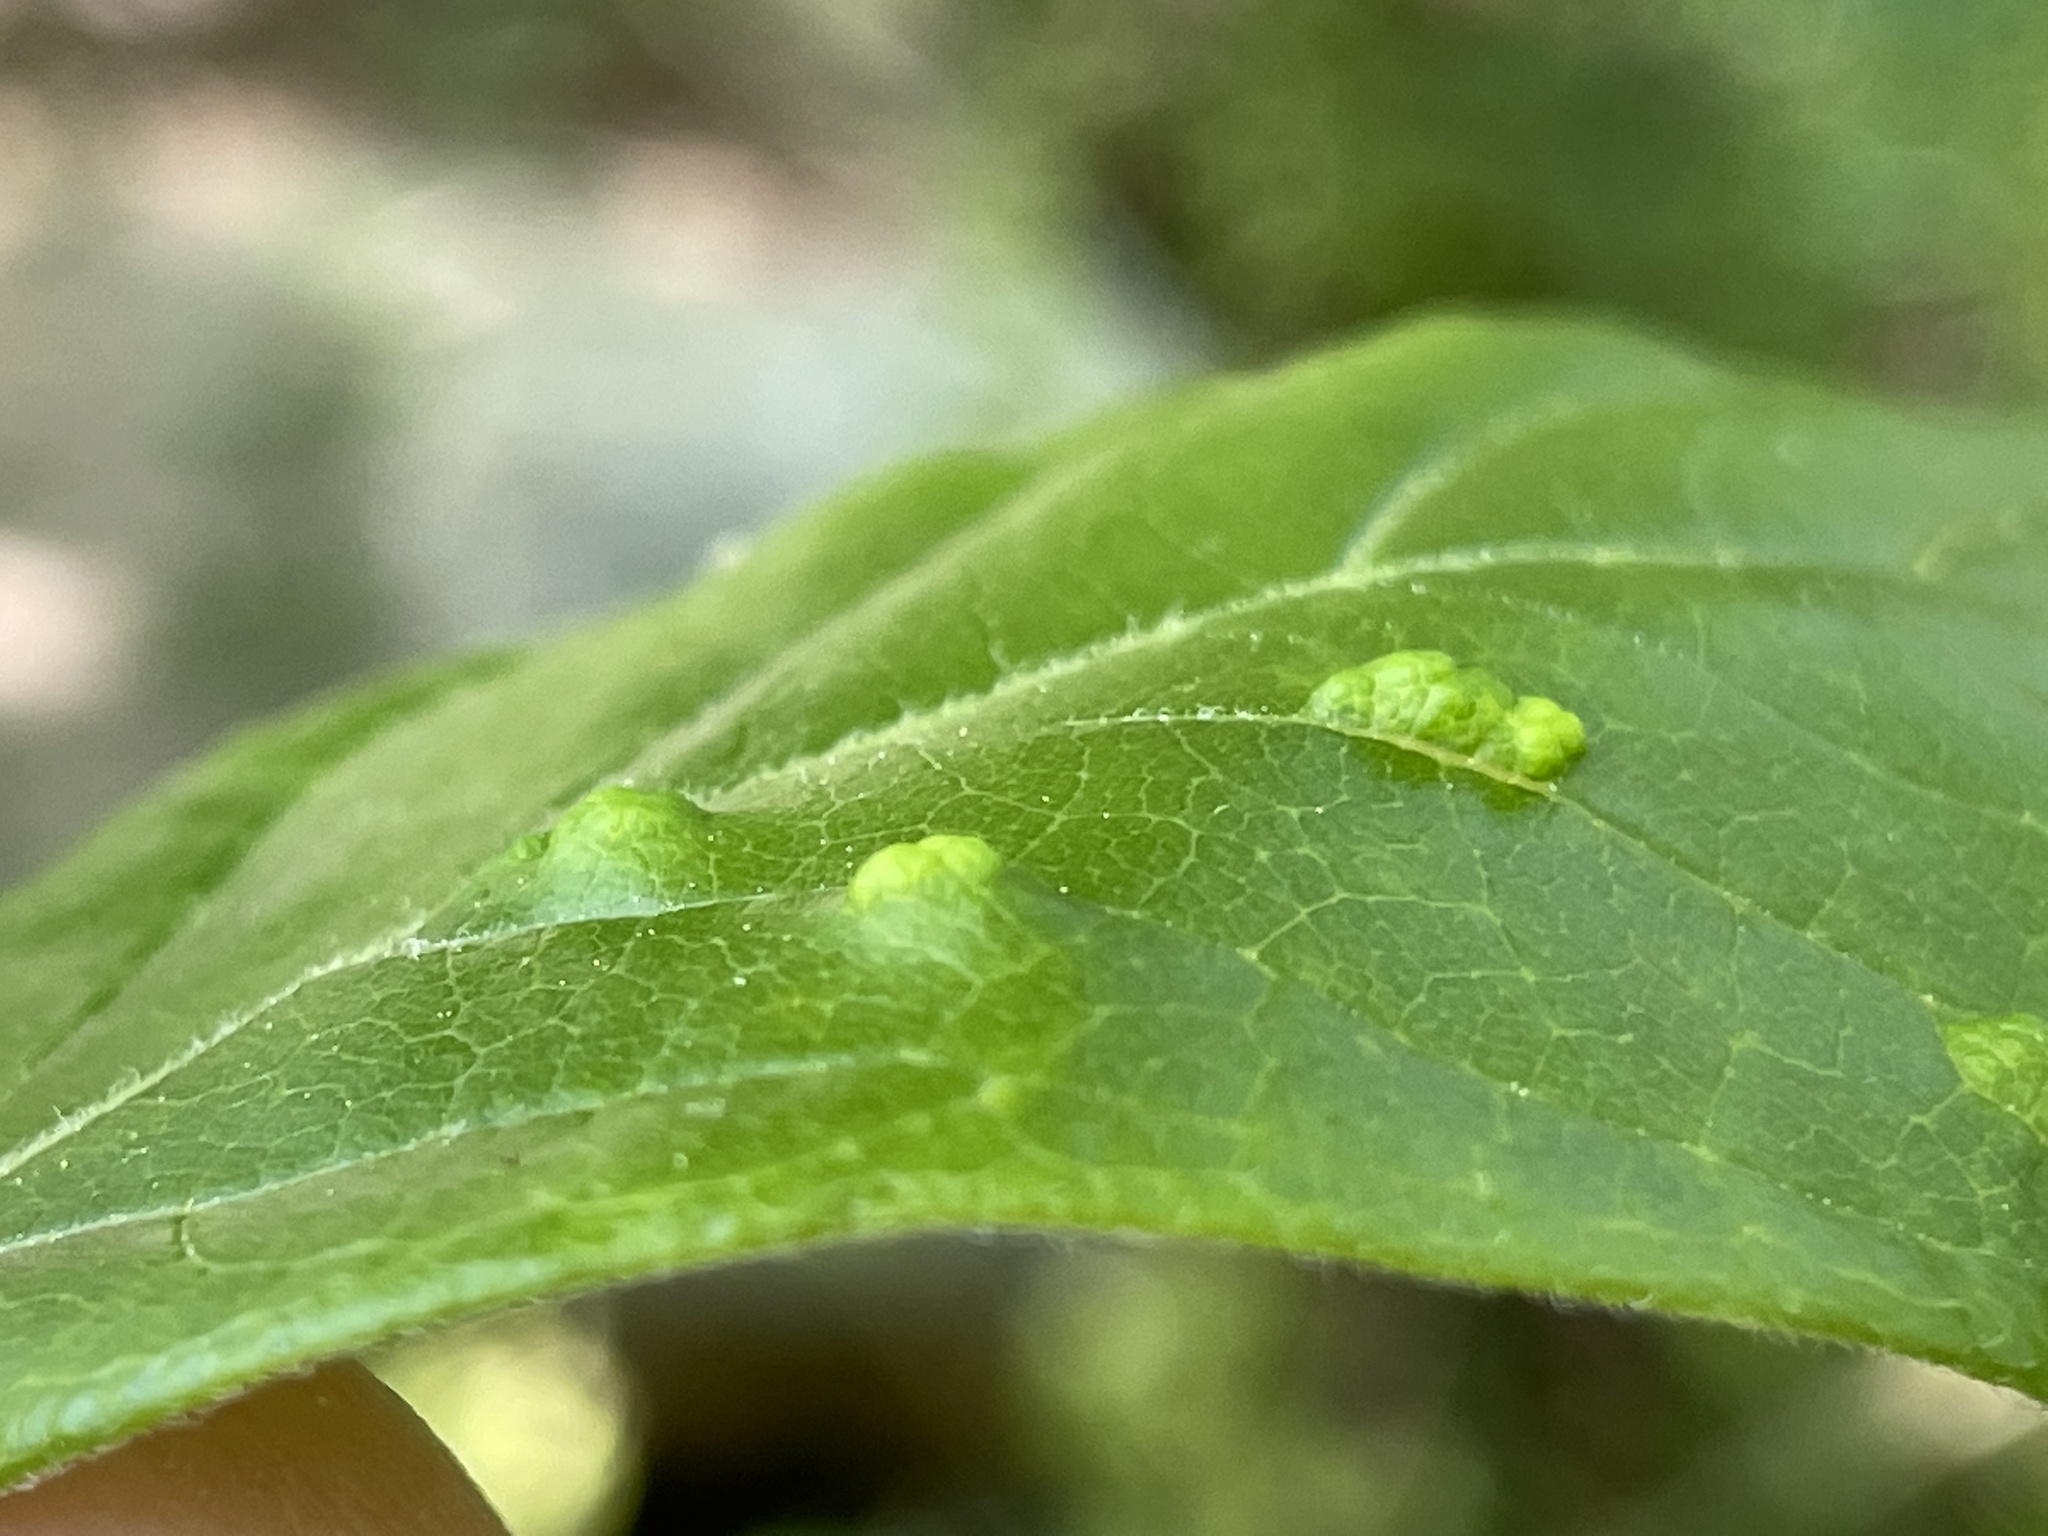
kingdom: Animalia
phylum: Arthropoda
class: Arachnida
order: Trombidiformes
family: Eriophyidae
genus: Aceria
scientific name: Aceria
